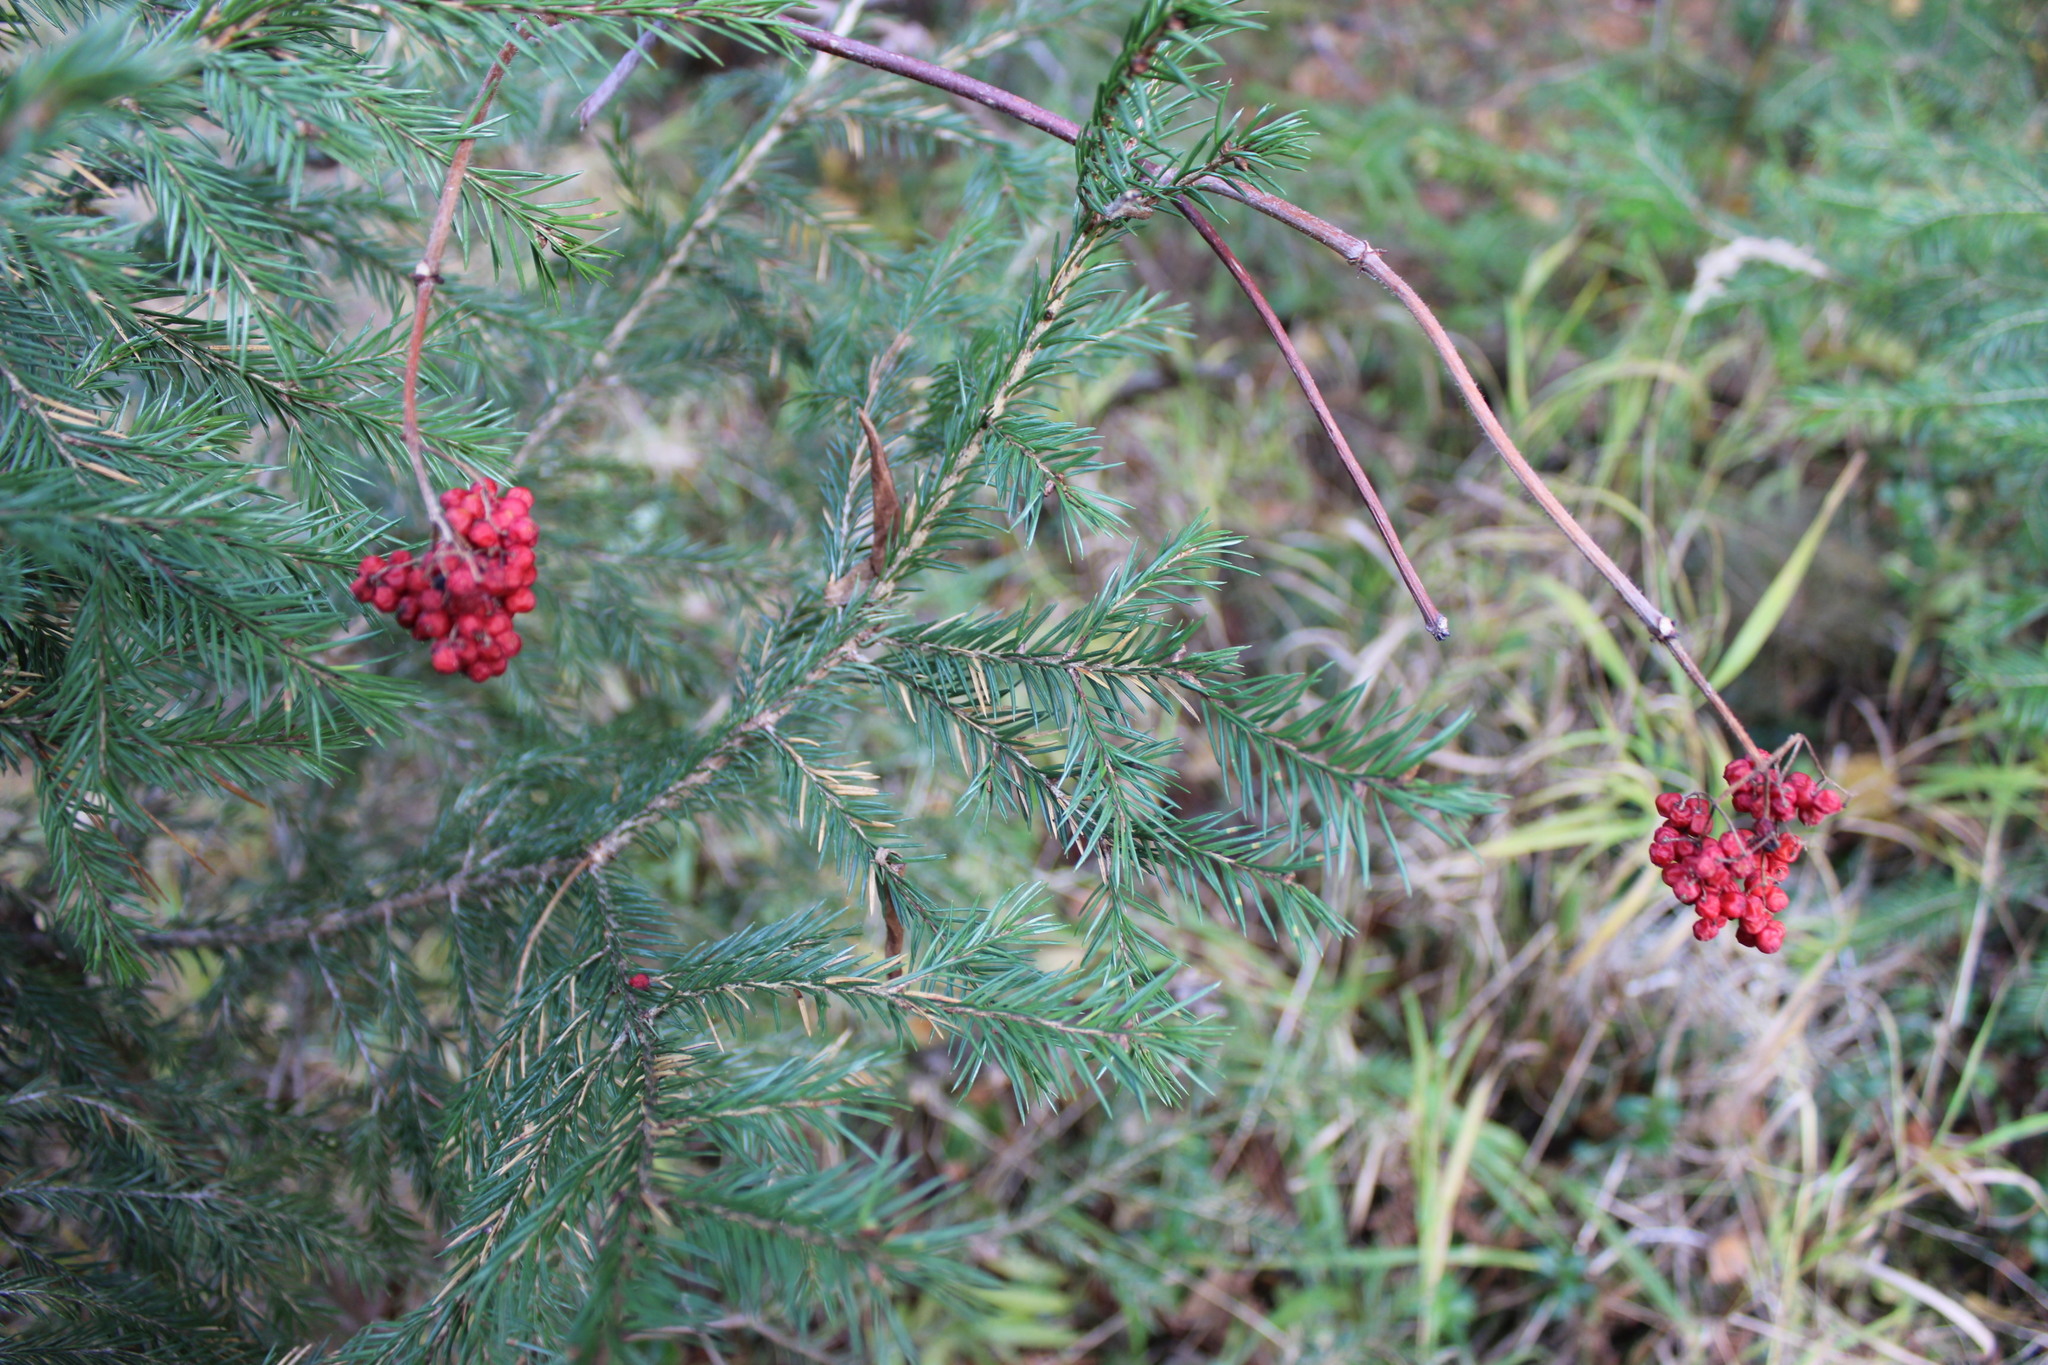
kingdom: Plantae
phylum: Tracheophyta
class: Magnoliopsida
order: Dipsacales
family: Viburnaceae
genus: Sambucus
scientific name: Sambucus sibirica
